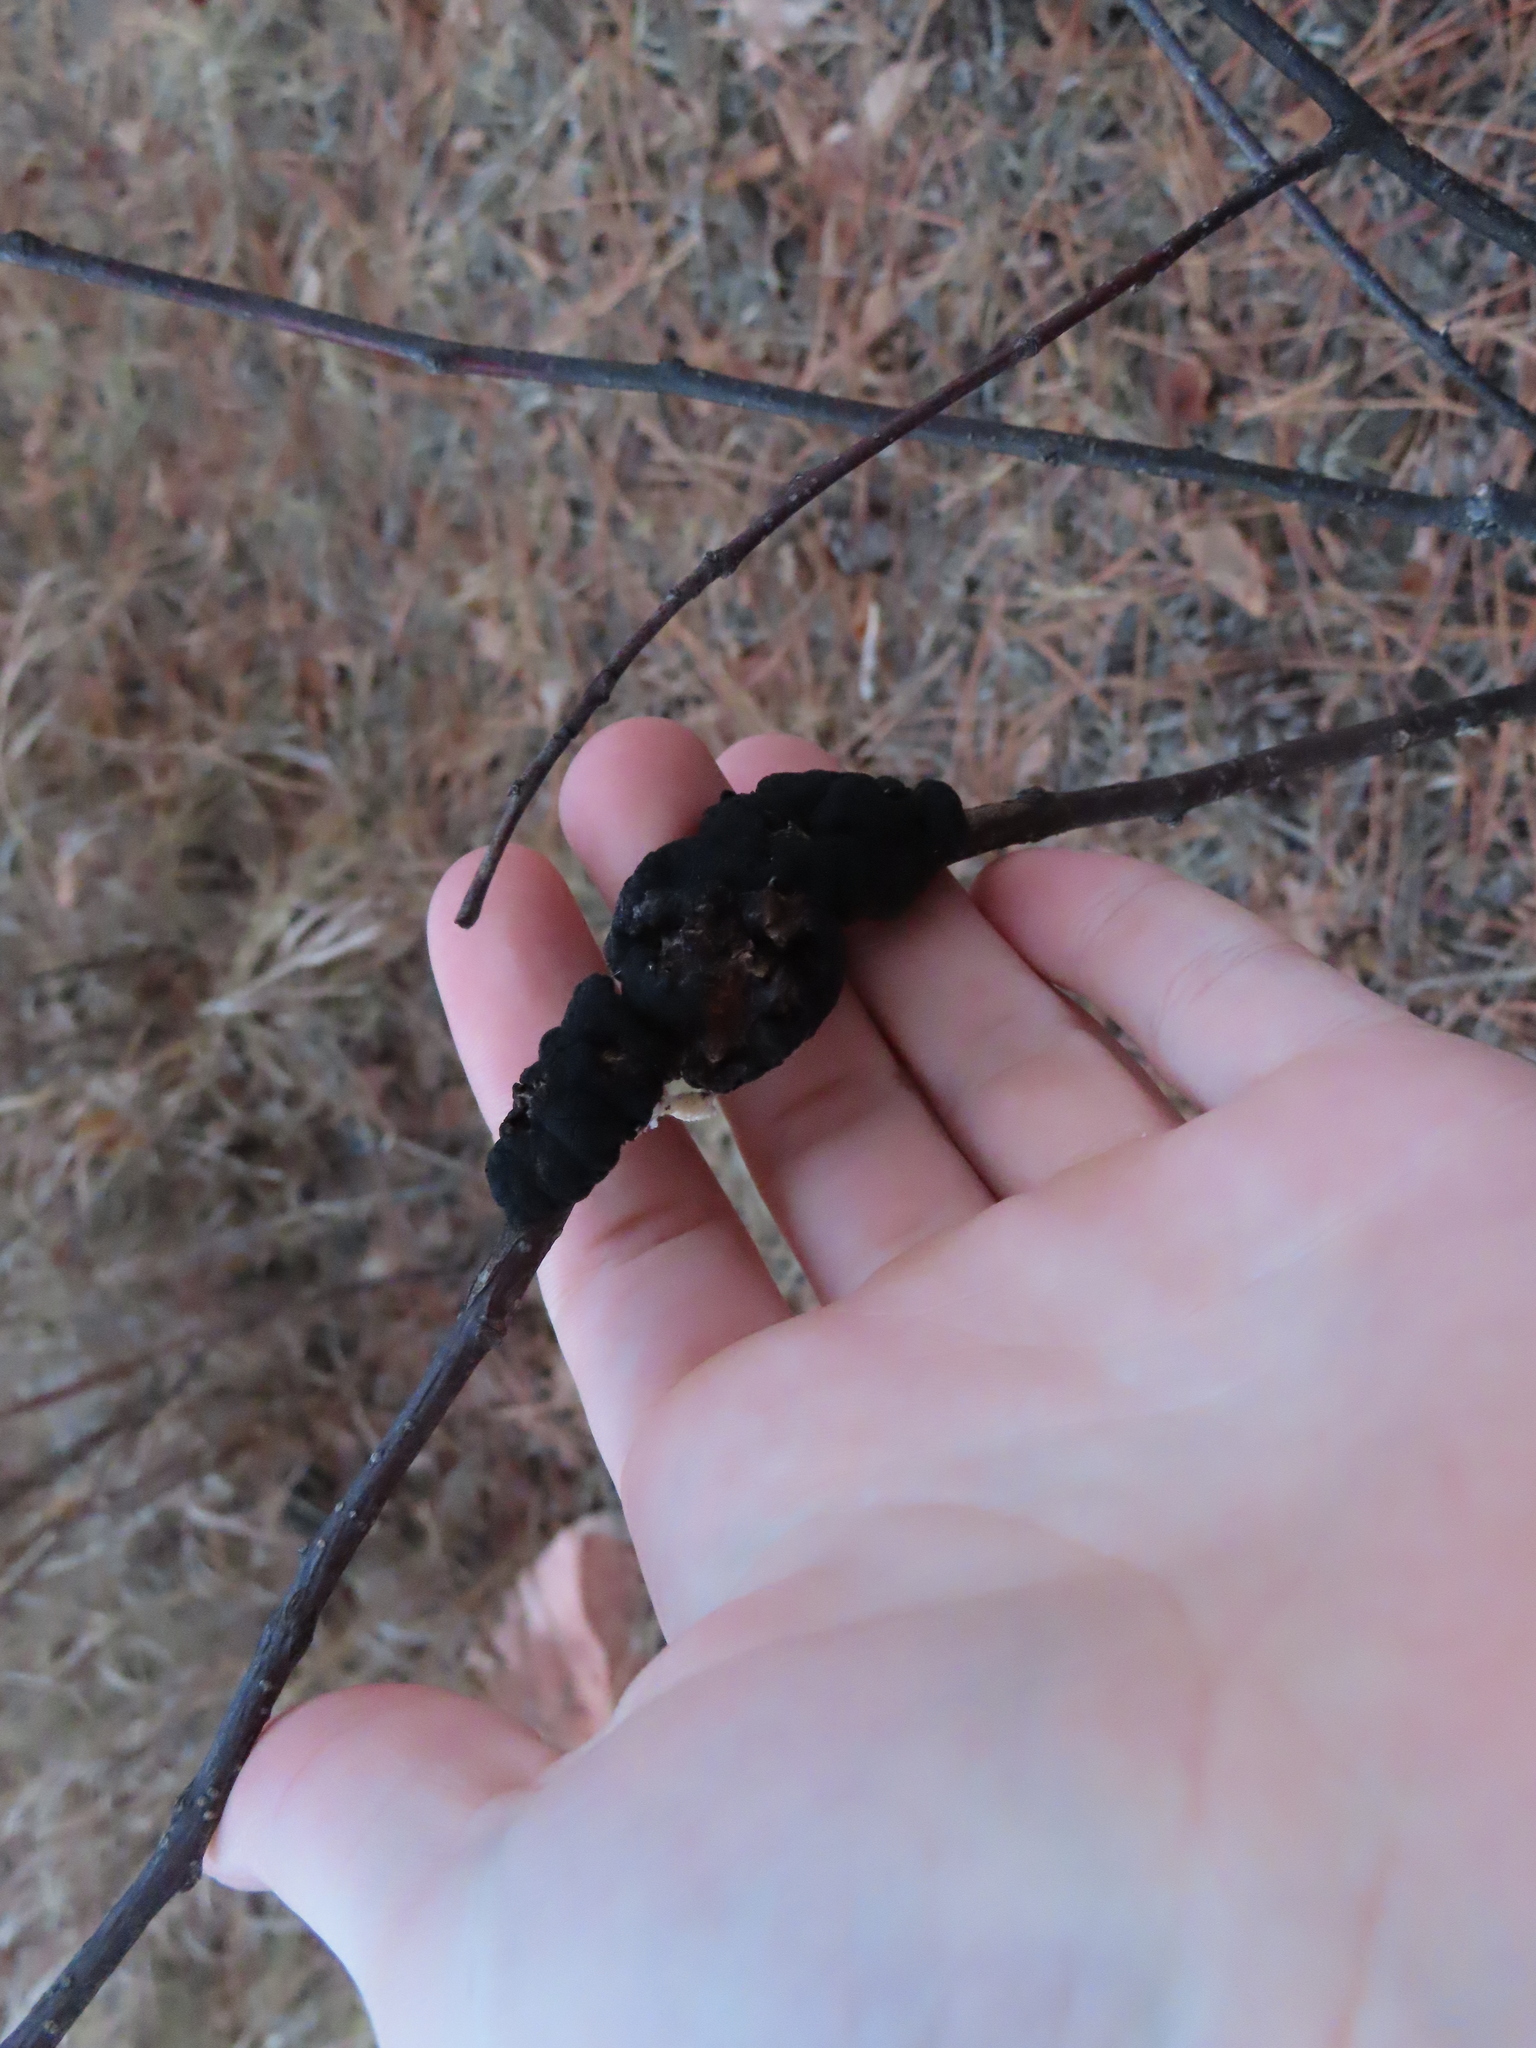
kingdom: Fungi
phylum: Ascomycota
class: Dothideomycetes
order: Venturiales
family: Venturiaceae
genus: Apiosporina
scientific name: Apiosporina morbosa
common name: Black knot
